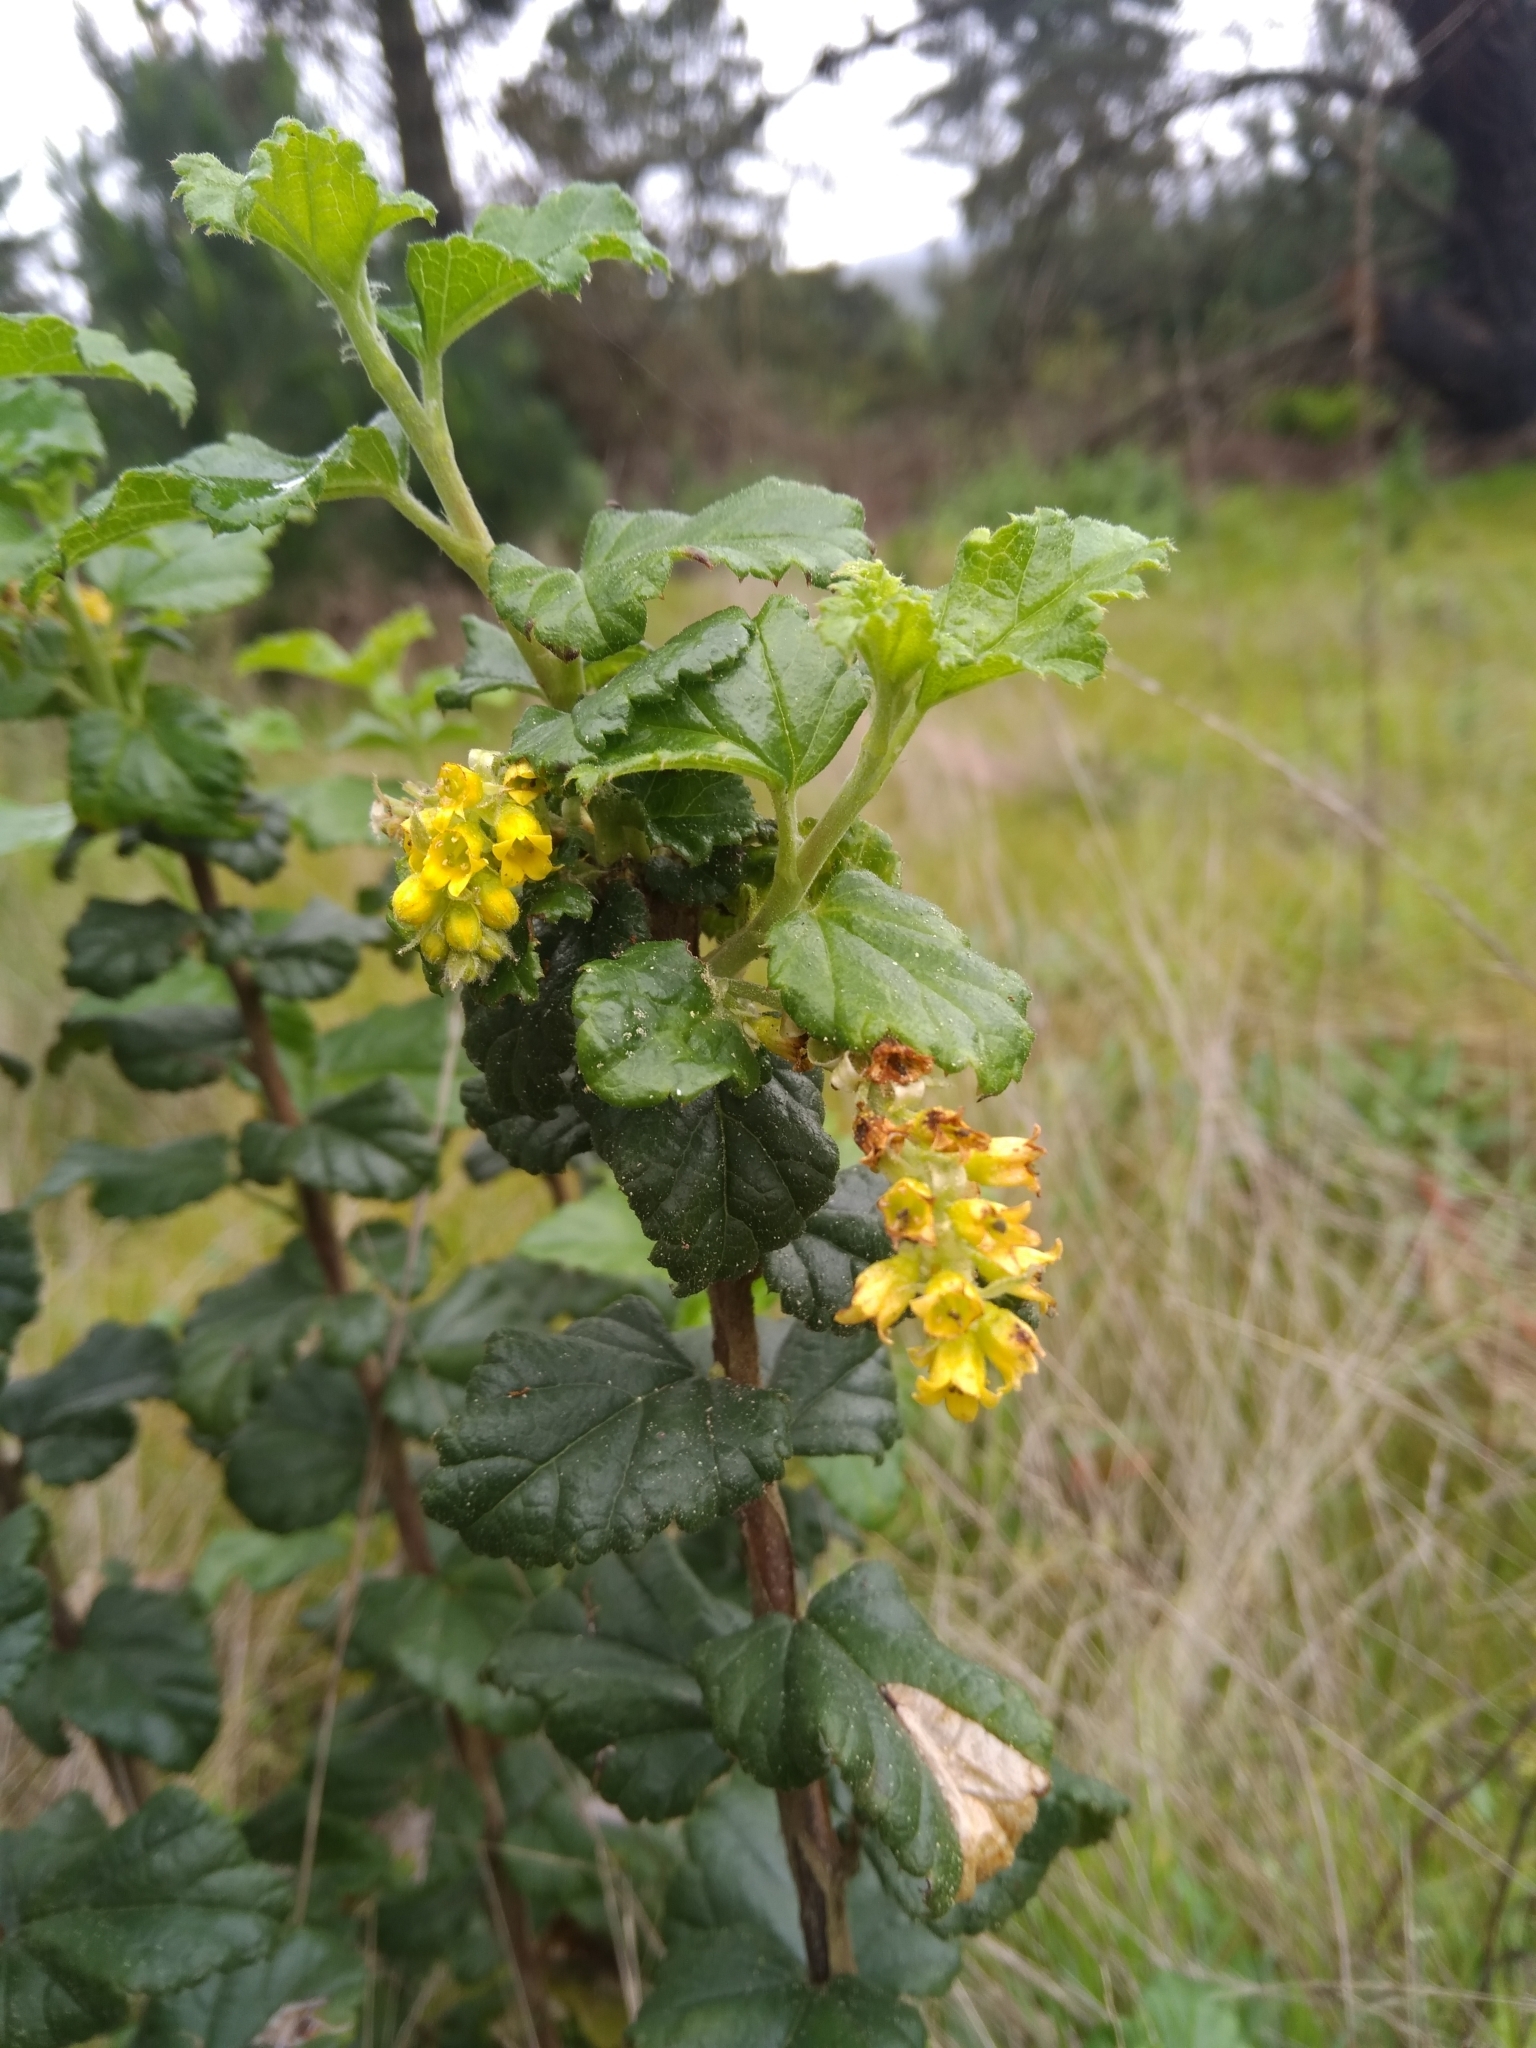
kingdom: Plantae
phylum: Tracheophyta
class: Magnoliopsida
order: Saxifragales
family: Grossulariaceae
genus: Ribes
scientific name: Ribes punctatum
